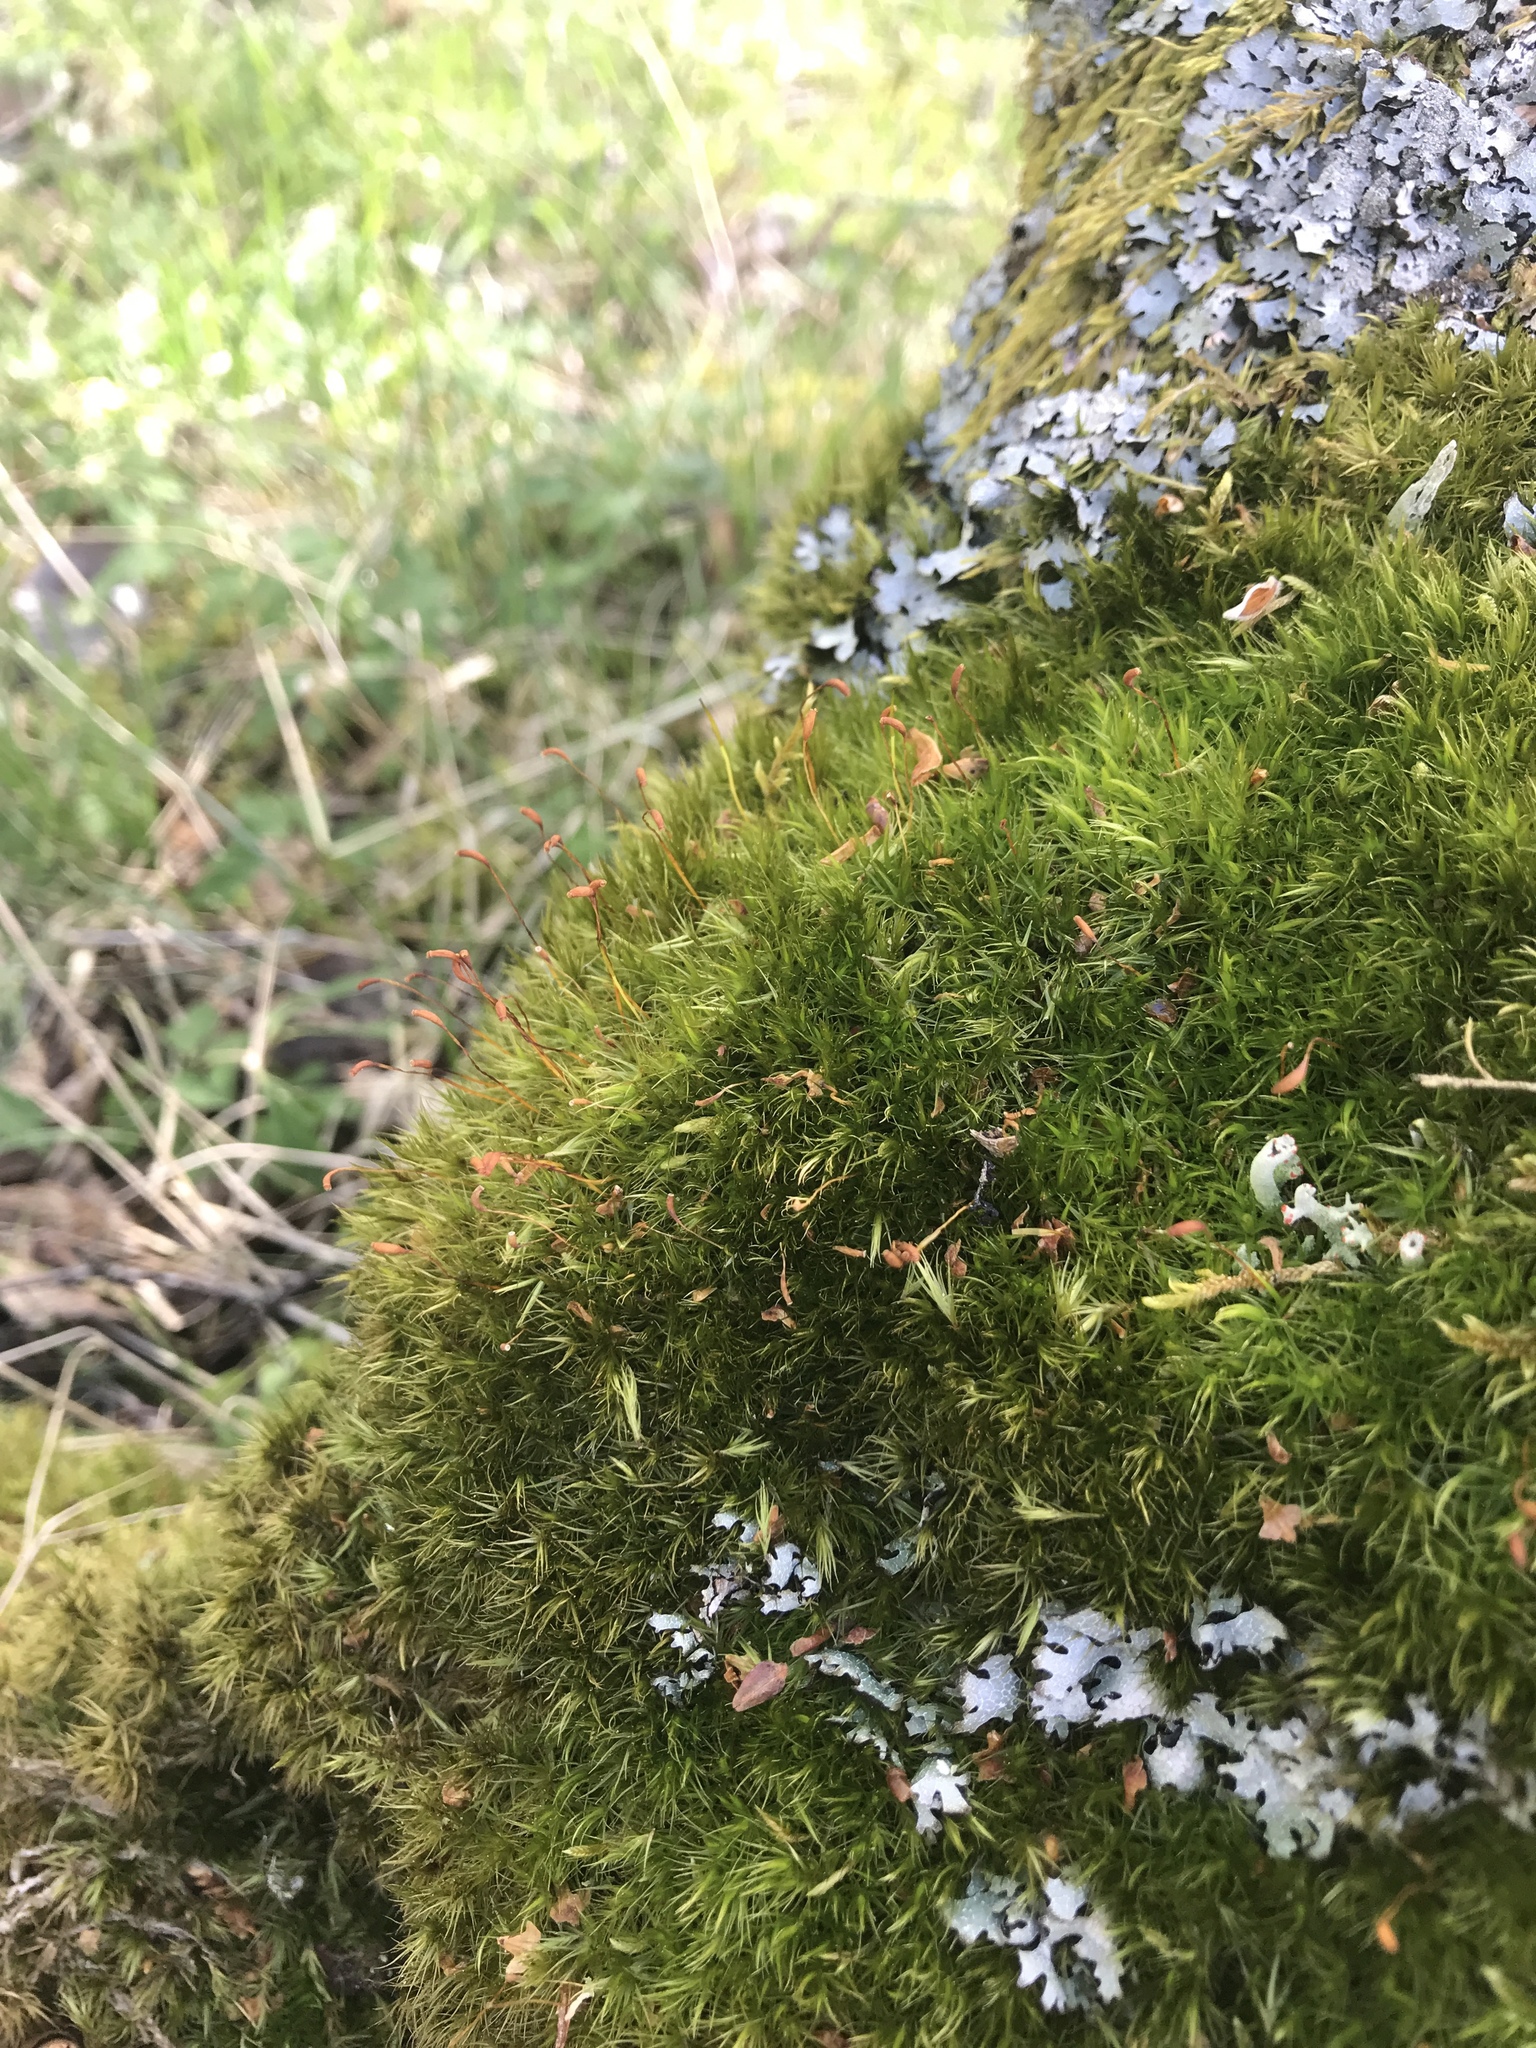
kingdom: Plantae
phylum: Bryophyta
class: Bryopsida
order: Dicranales
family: Dicranaceae
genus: Dicranum
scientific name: Dicranum scoparium
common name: Broom fork-moss
